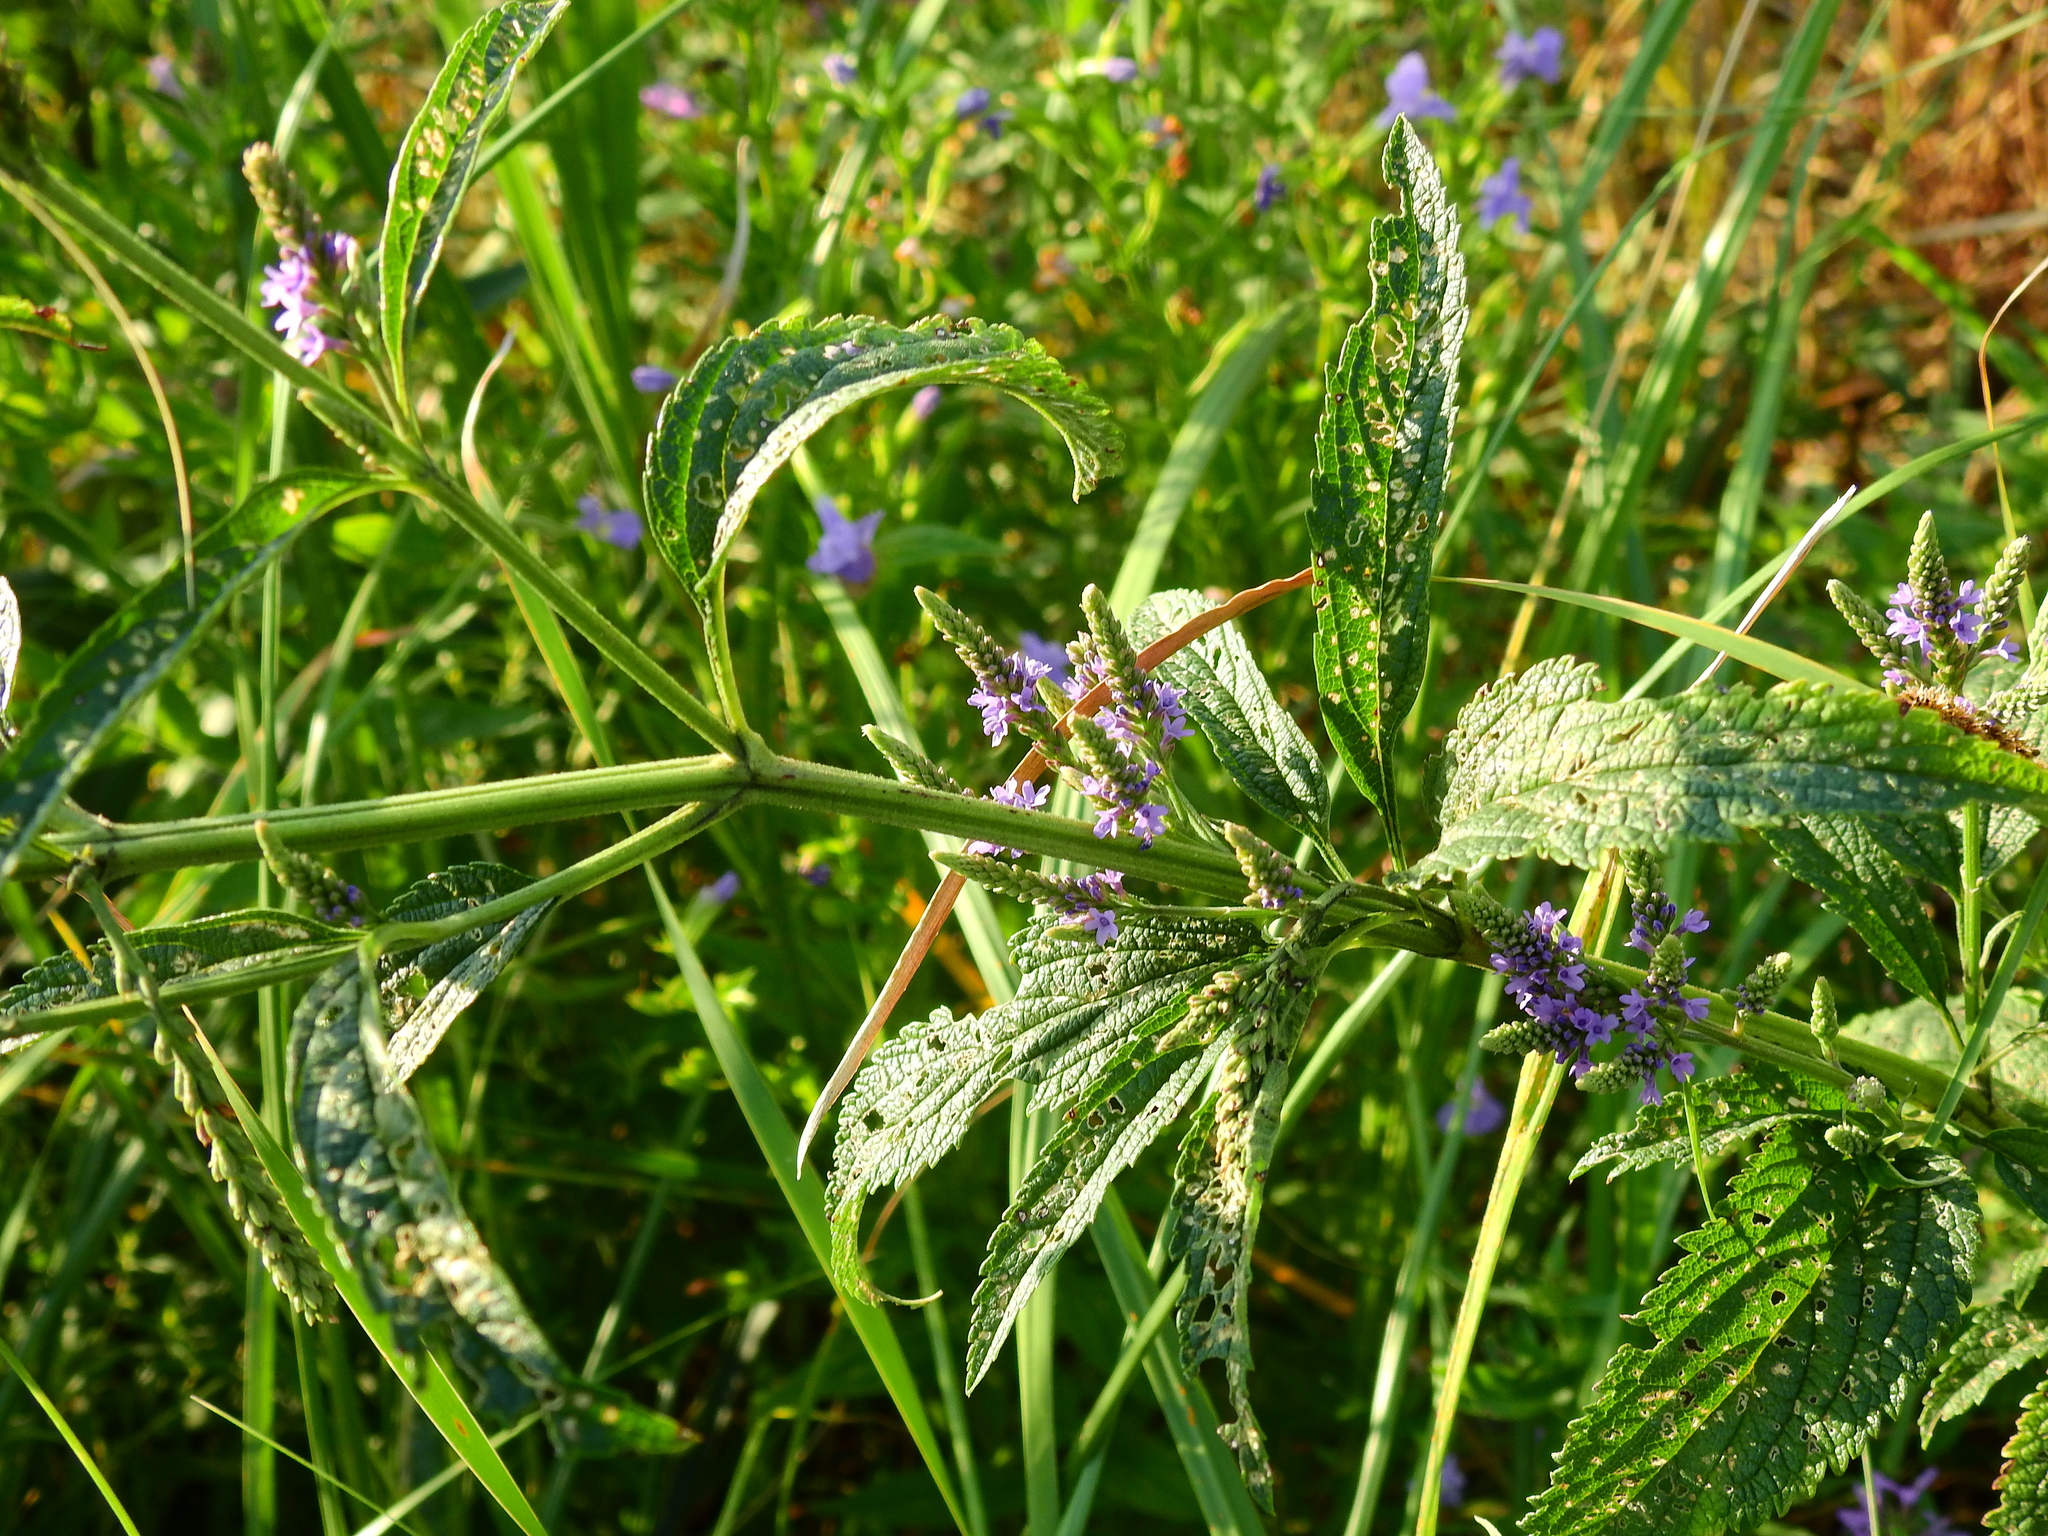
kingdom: Plantae
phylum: Tracheophyta
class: Magnoliopsida
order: Lamiales
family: Verbenaceae
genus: Verbena
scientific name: Verbena hastata
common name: American blue vervain
